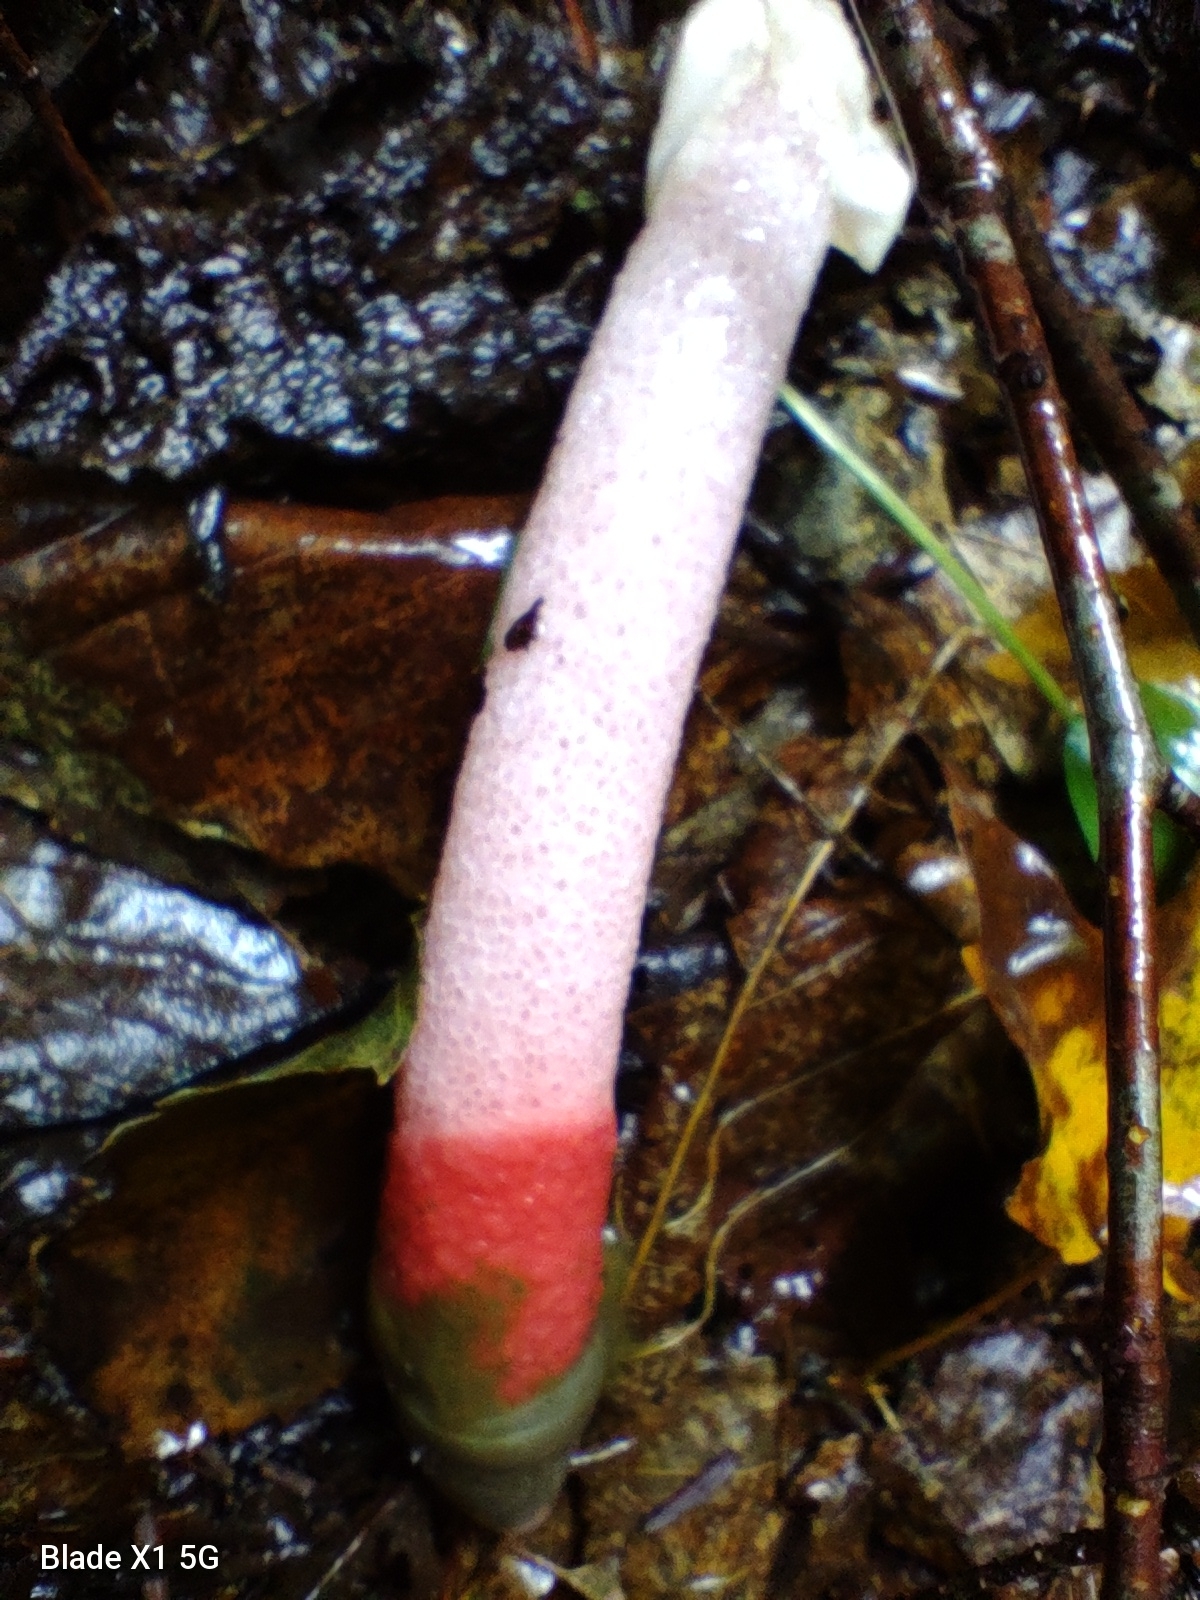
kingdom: Fungi
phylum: Basidiomycota
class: Agaricomycetes
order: Phallales
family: Phallaceae
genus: Mutinus
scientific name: Mutinus ravenelii
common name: Red stinkhorn
